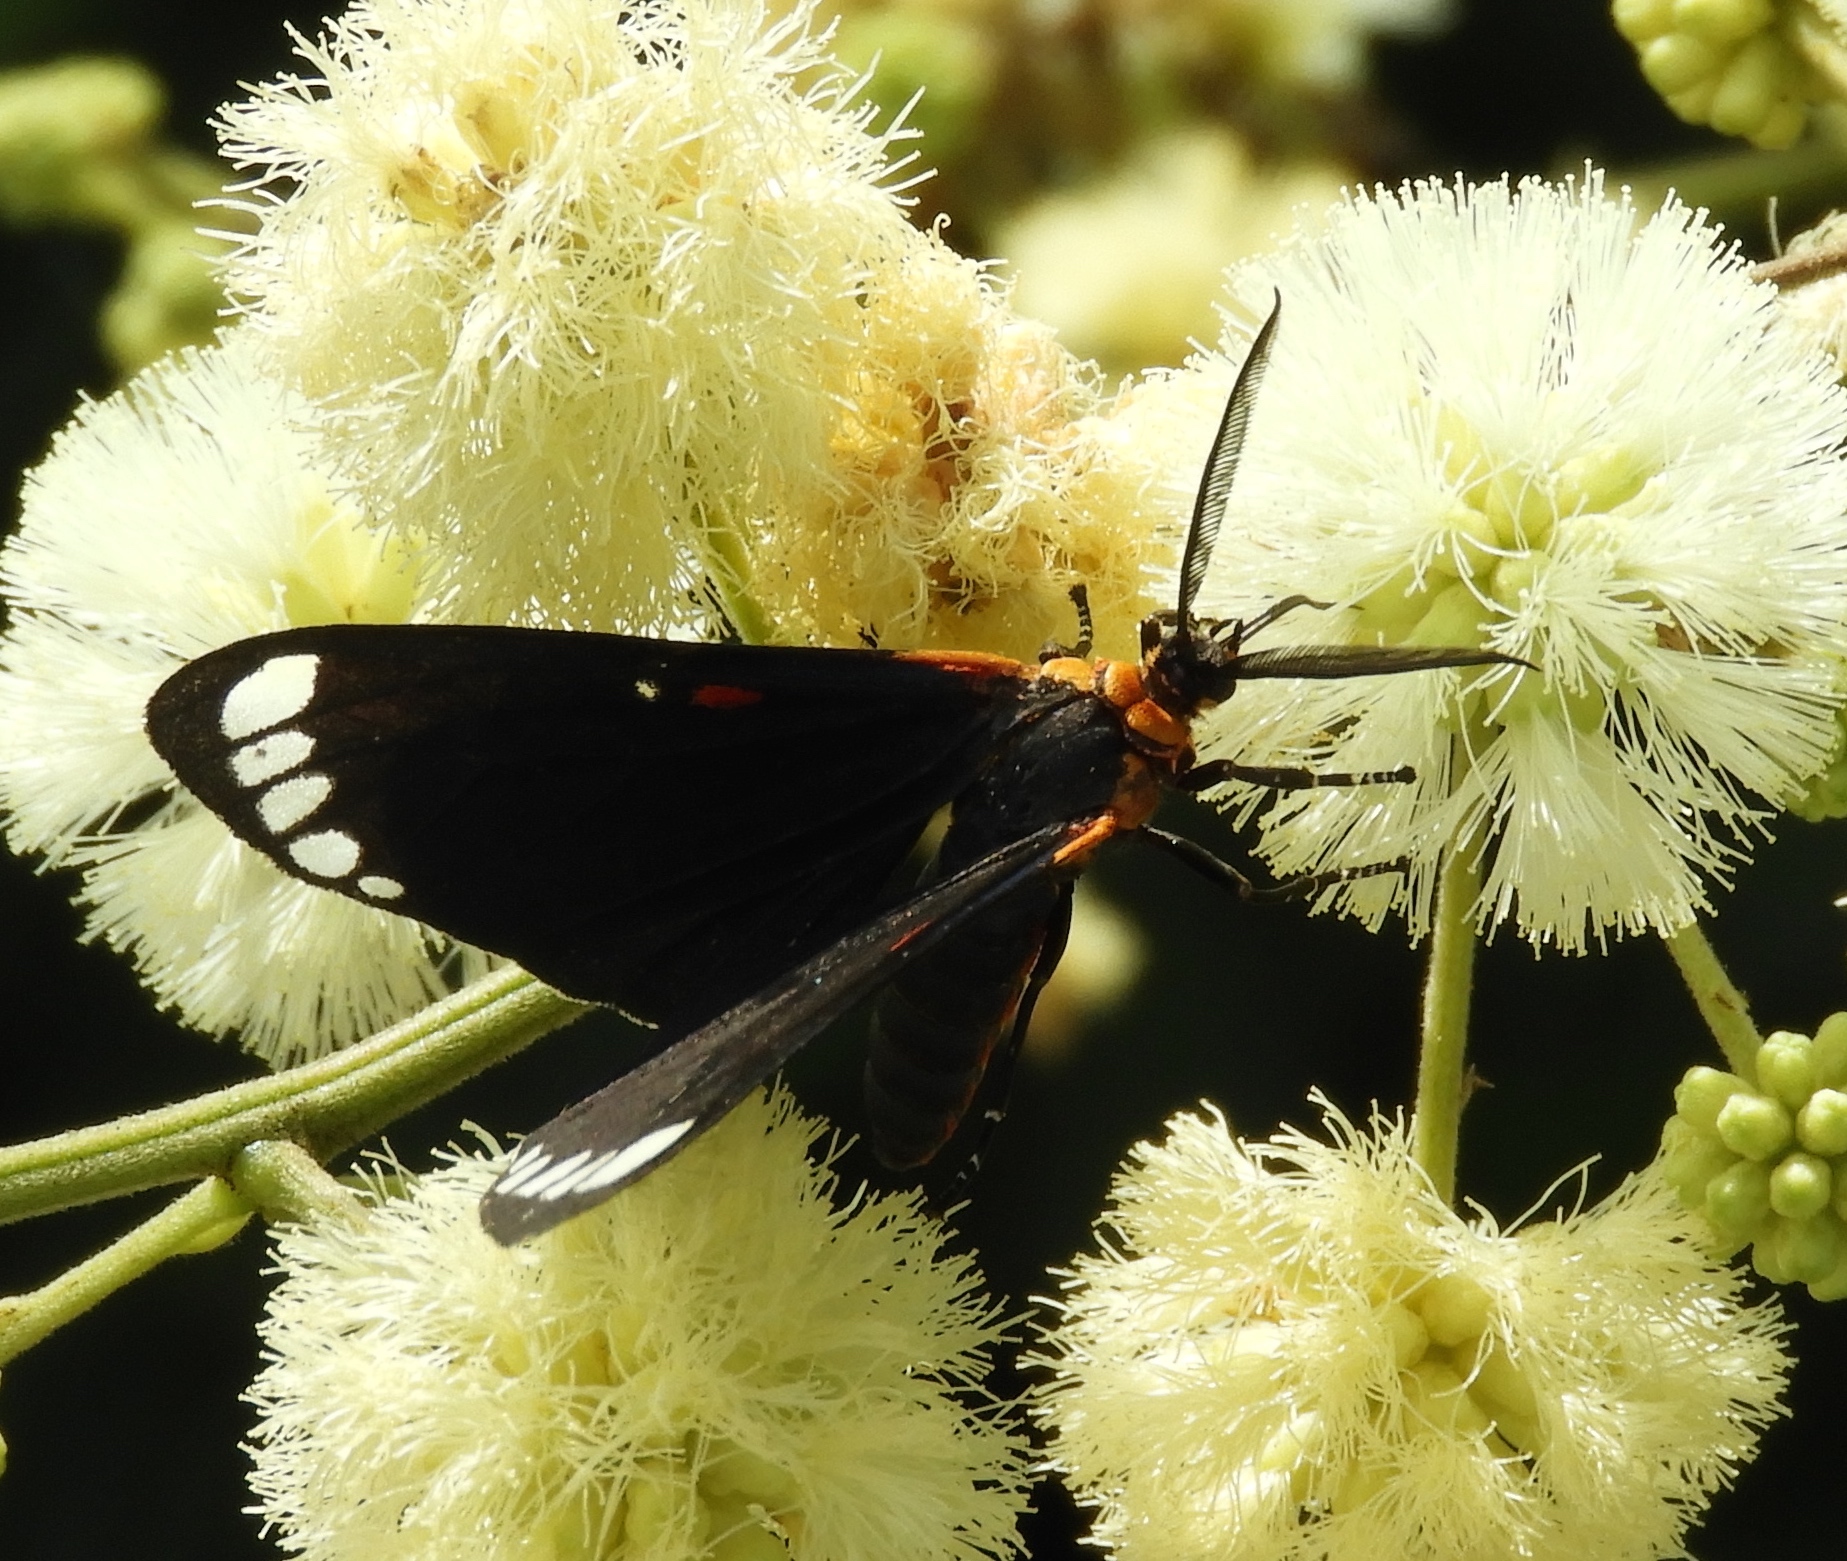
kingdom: Animalia
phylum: Arthropoda
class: Insecta
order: Lepidoptera
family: Erebidae
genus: Phaloesia
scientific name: Phaloesia saucia
